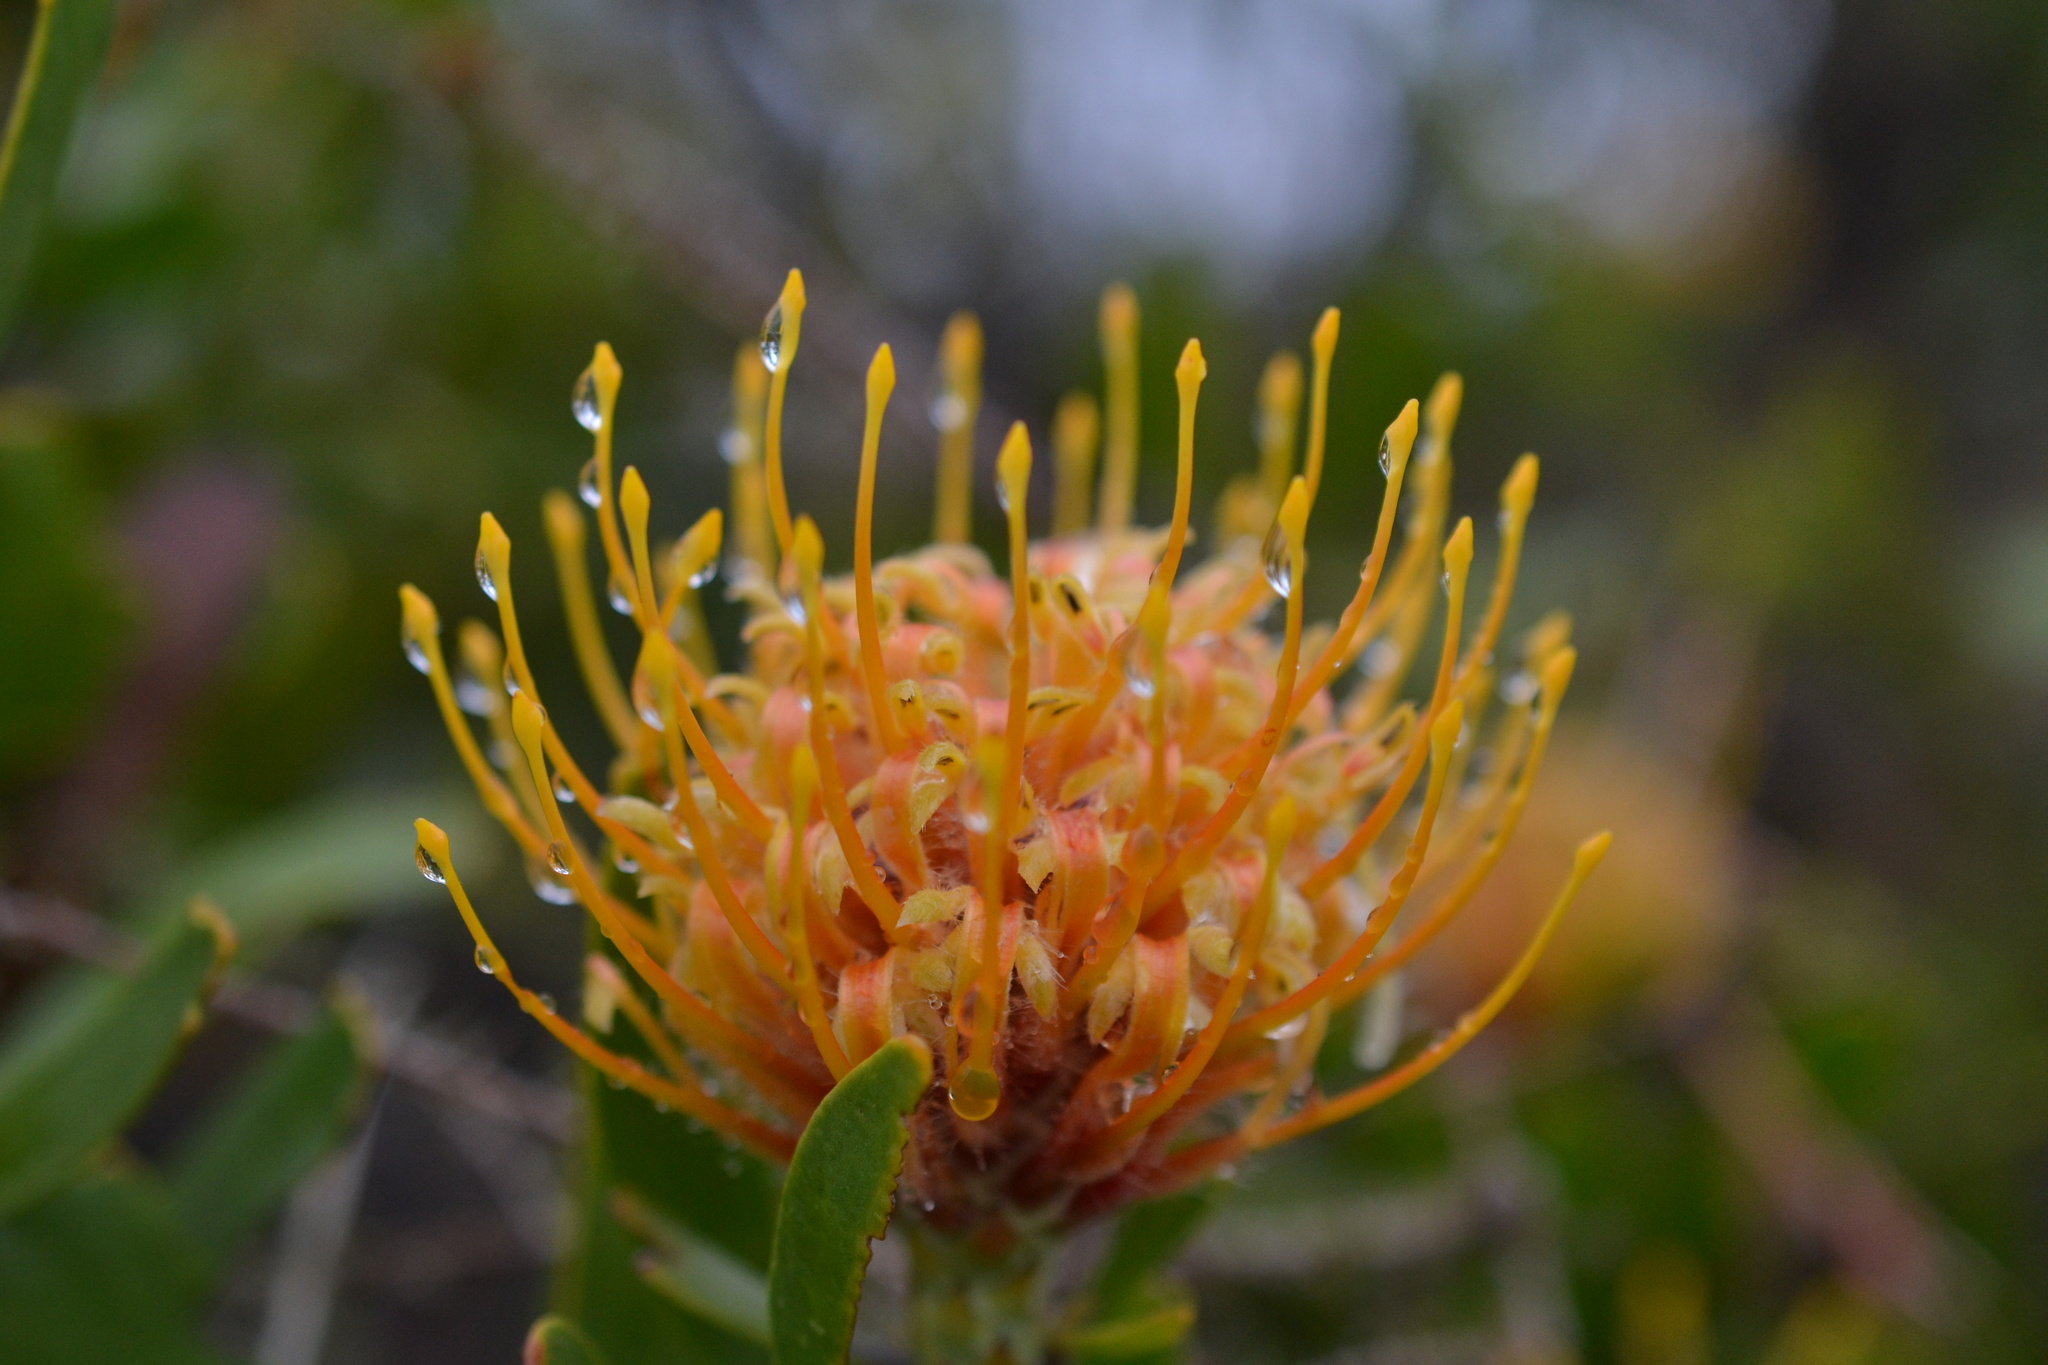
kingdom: Plantae
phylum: Tracheophyta
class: Magnoliopsida
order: Proteales
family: Proteaceae
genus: Leucospermum
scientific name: Leucospermum cuneiforme
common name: Common pincushion
